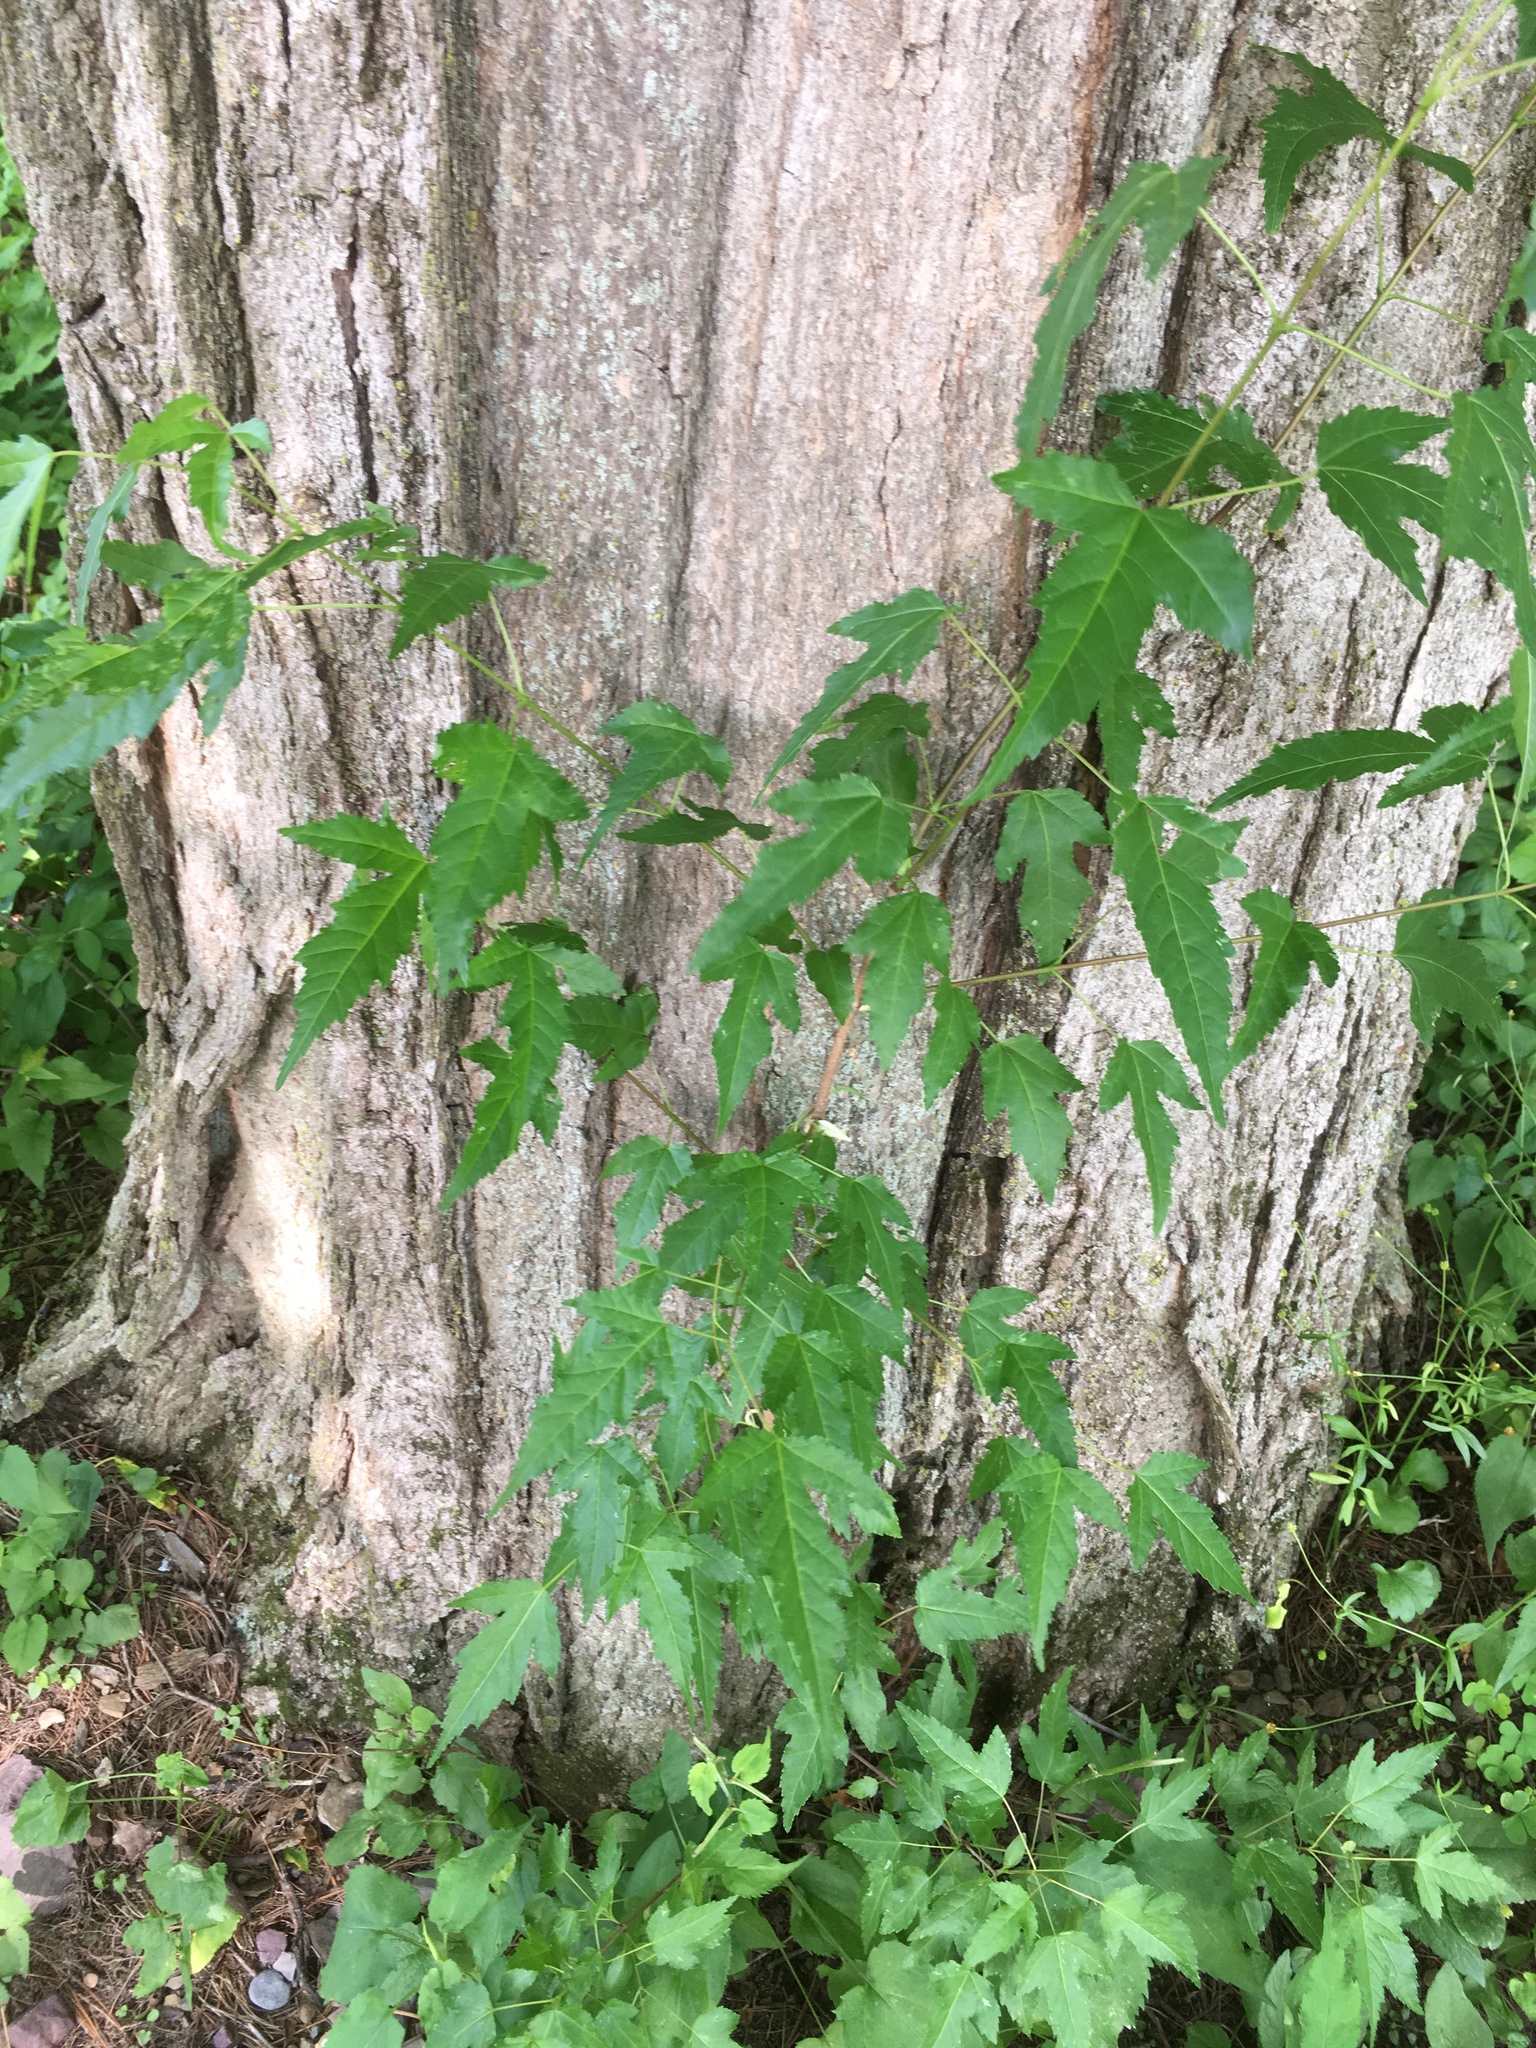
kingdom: Plantae
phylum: Tracheophyta
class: Magnoliopsida
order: Sapindales
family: Sapindaceae
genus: Acer
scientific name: Acer tataricum
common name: Tartar maple
